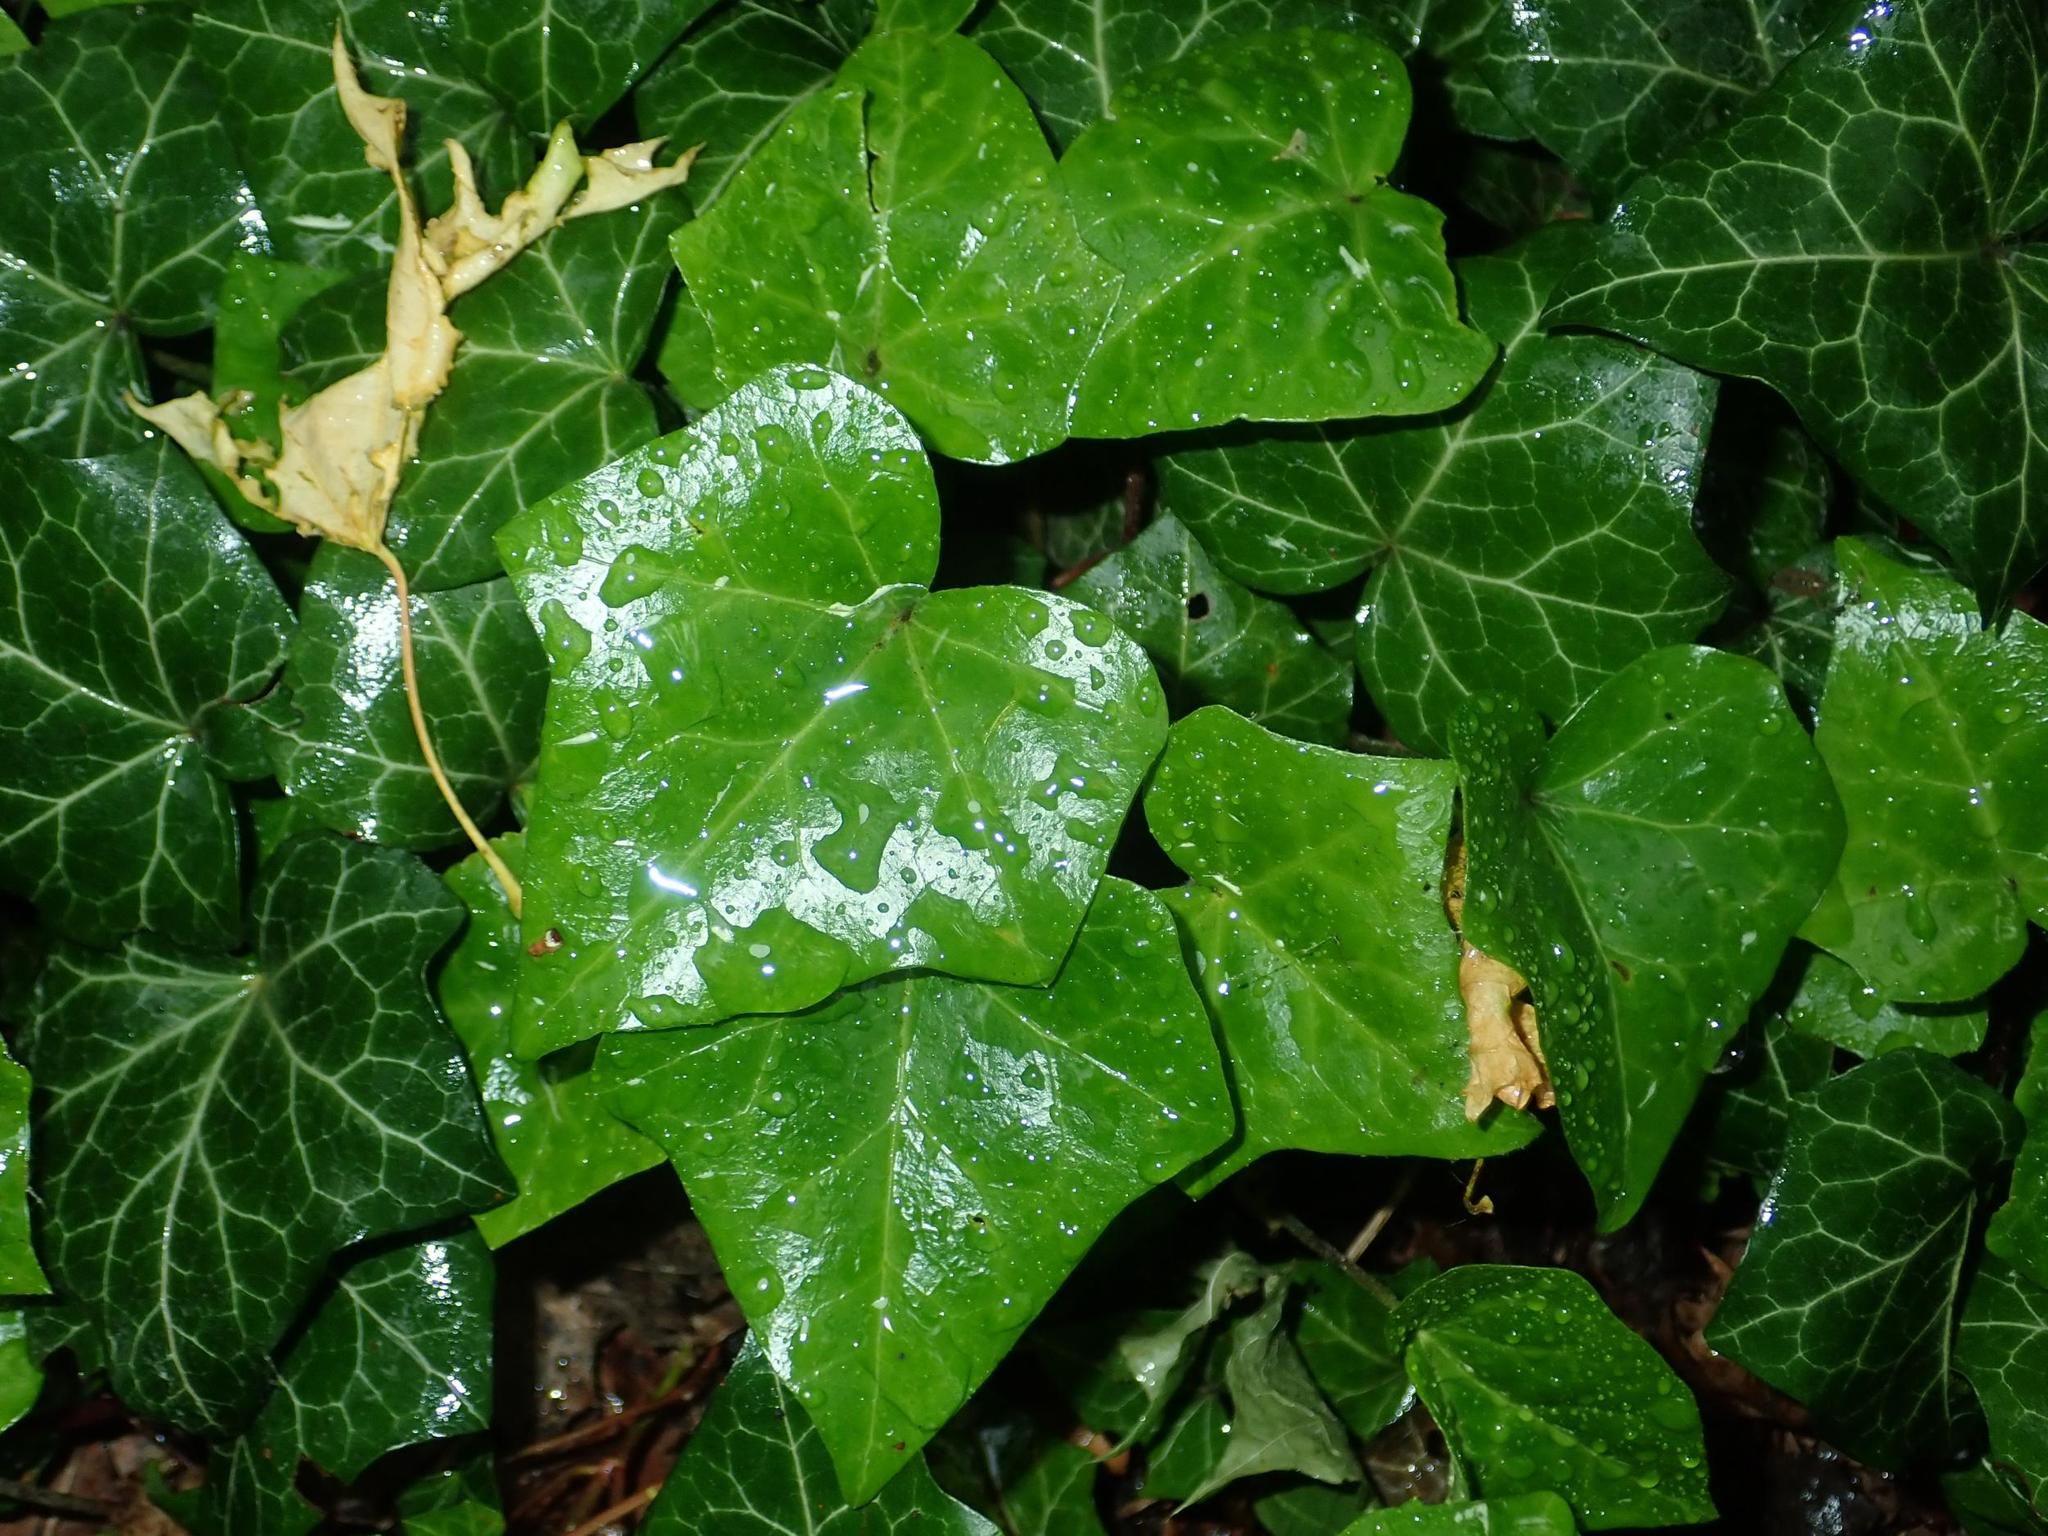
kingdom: Plantae
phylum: Tracheophyta
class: Magnoliopsida
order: Apiales
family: Araliaceae
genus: Hedera
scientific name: Hedera helix
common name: Ivy
